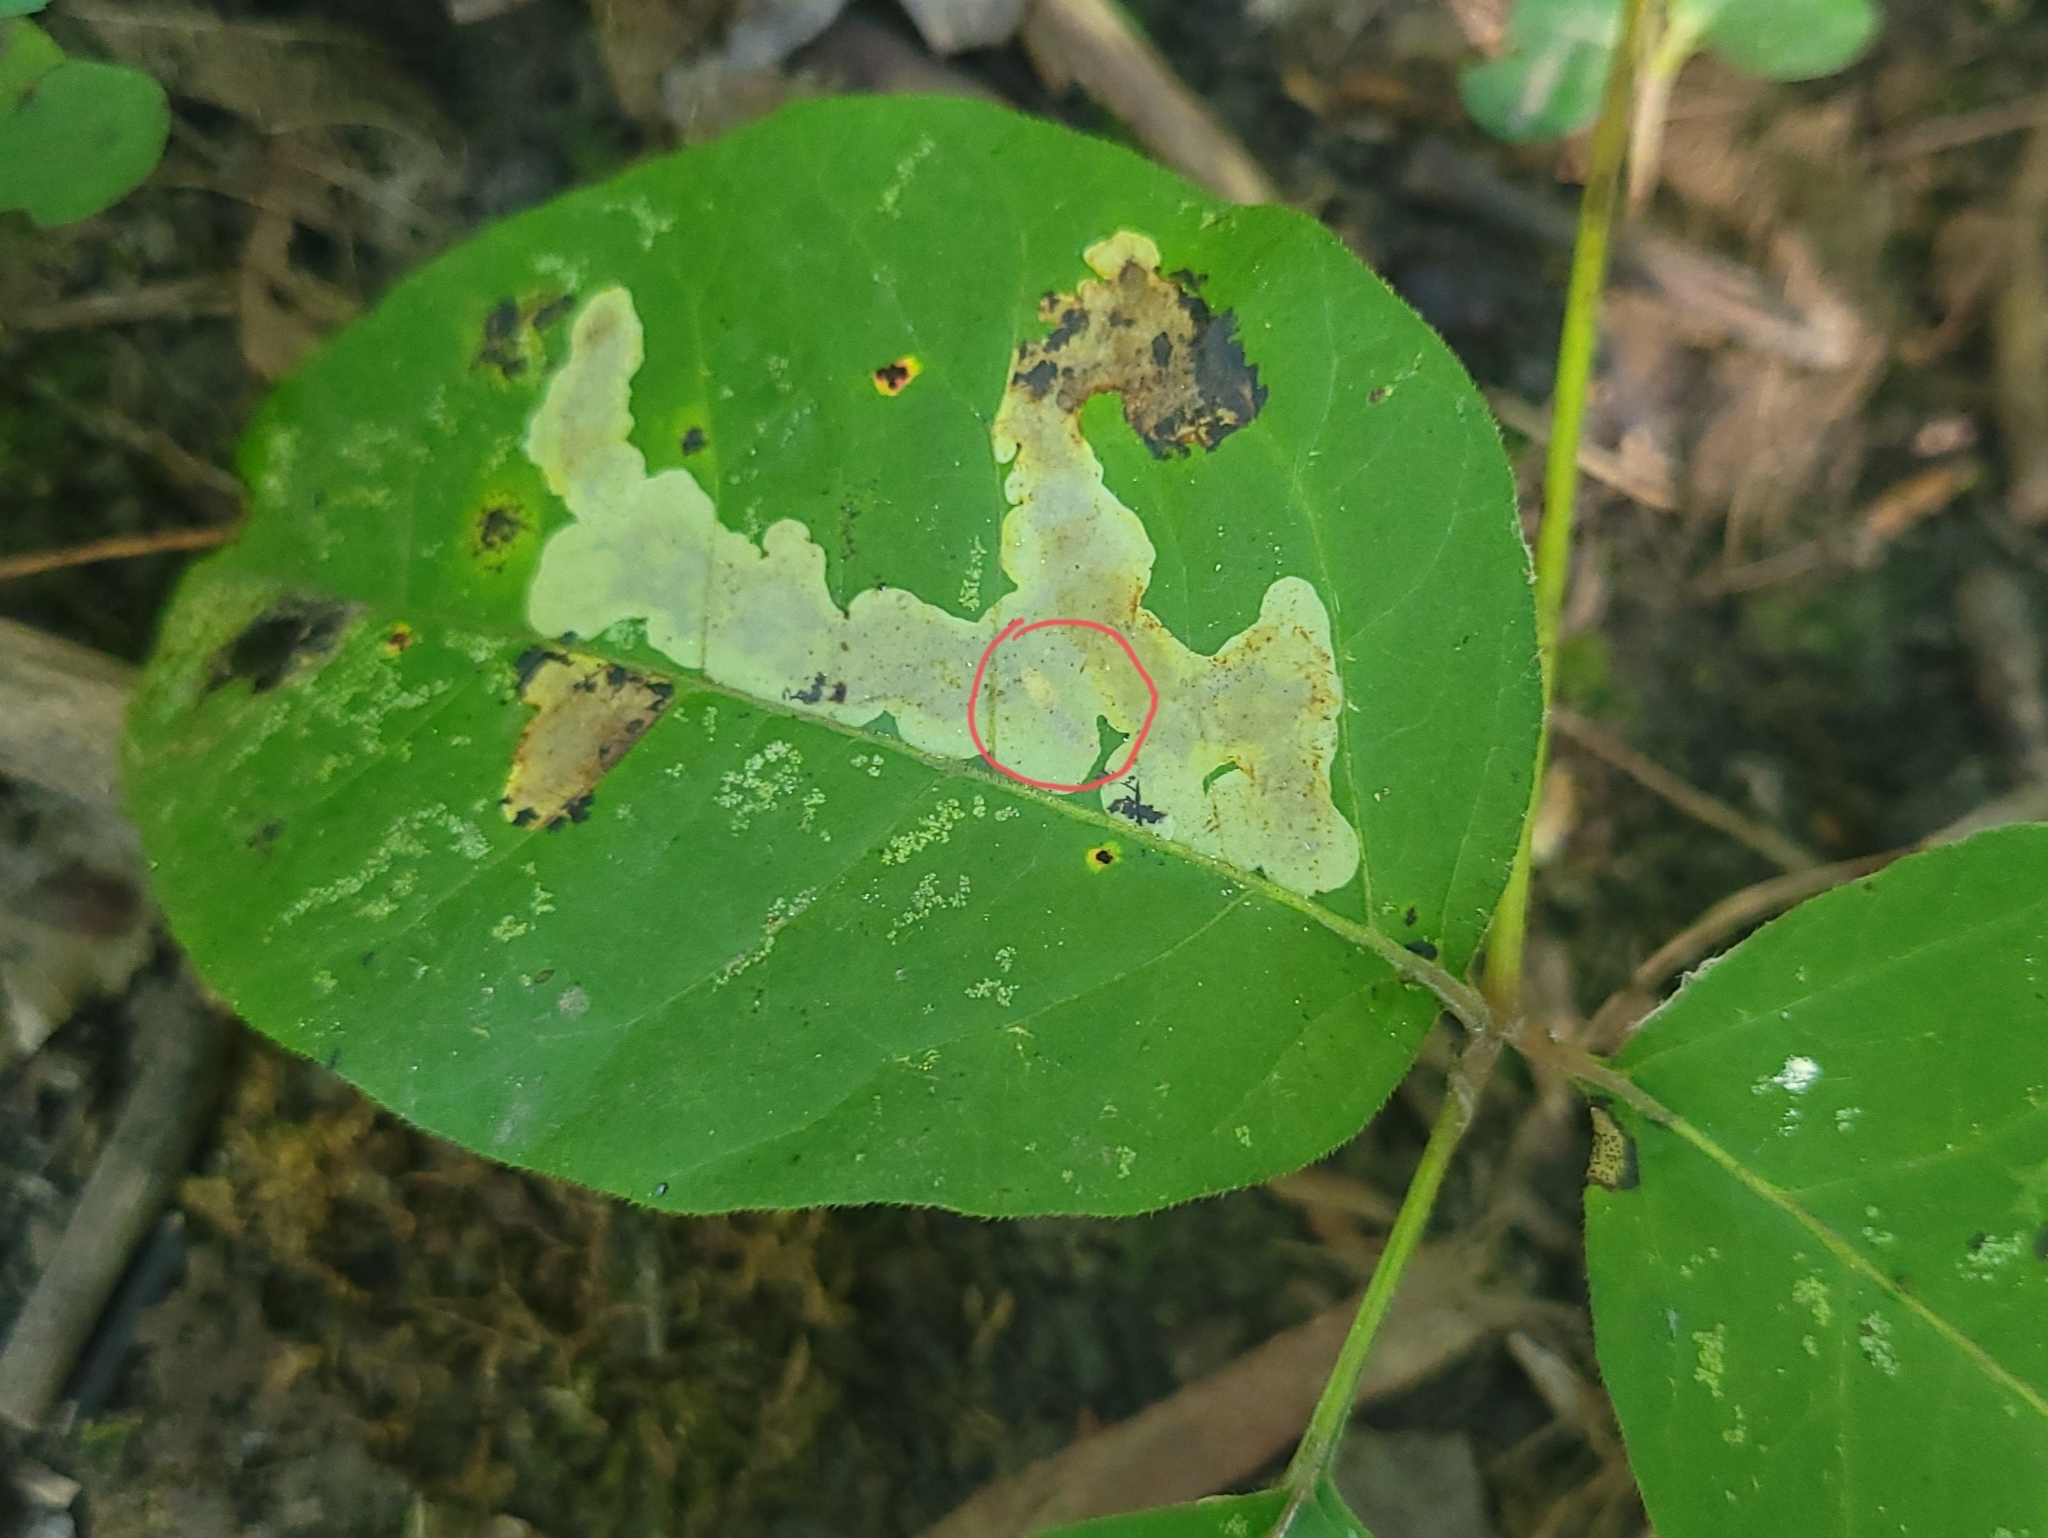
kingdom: Animalia
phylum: Arthropoda
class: Insecta
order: Lepidoptera
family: Gracillariidae
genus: Cameraria
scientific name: Cameraria guttifinitella
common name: Poison ivy leaf-miner moth
